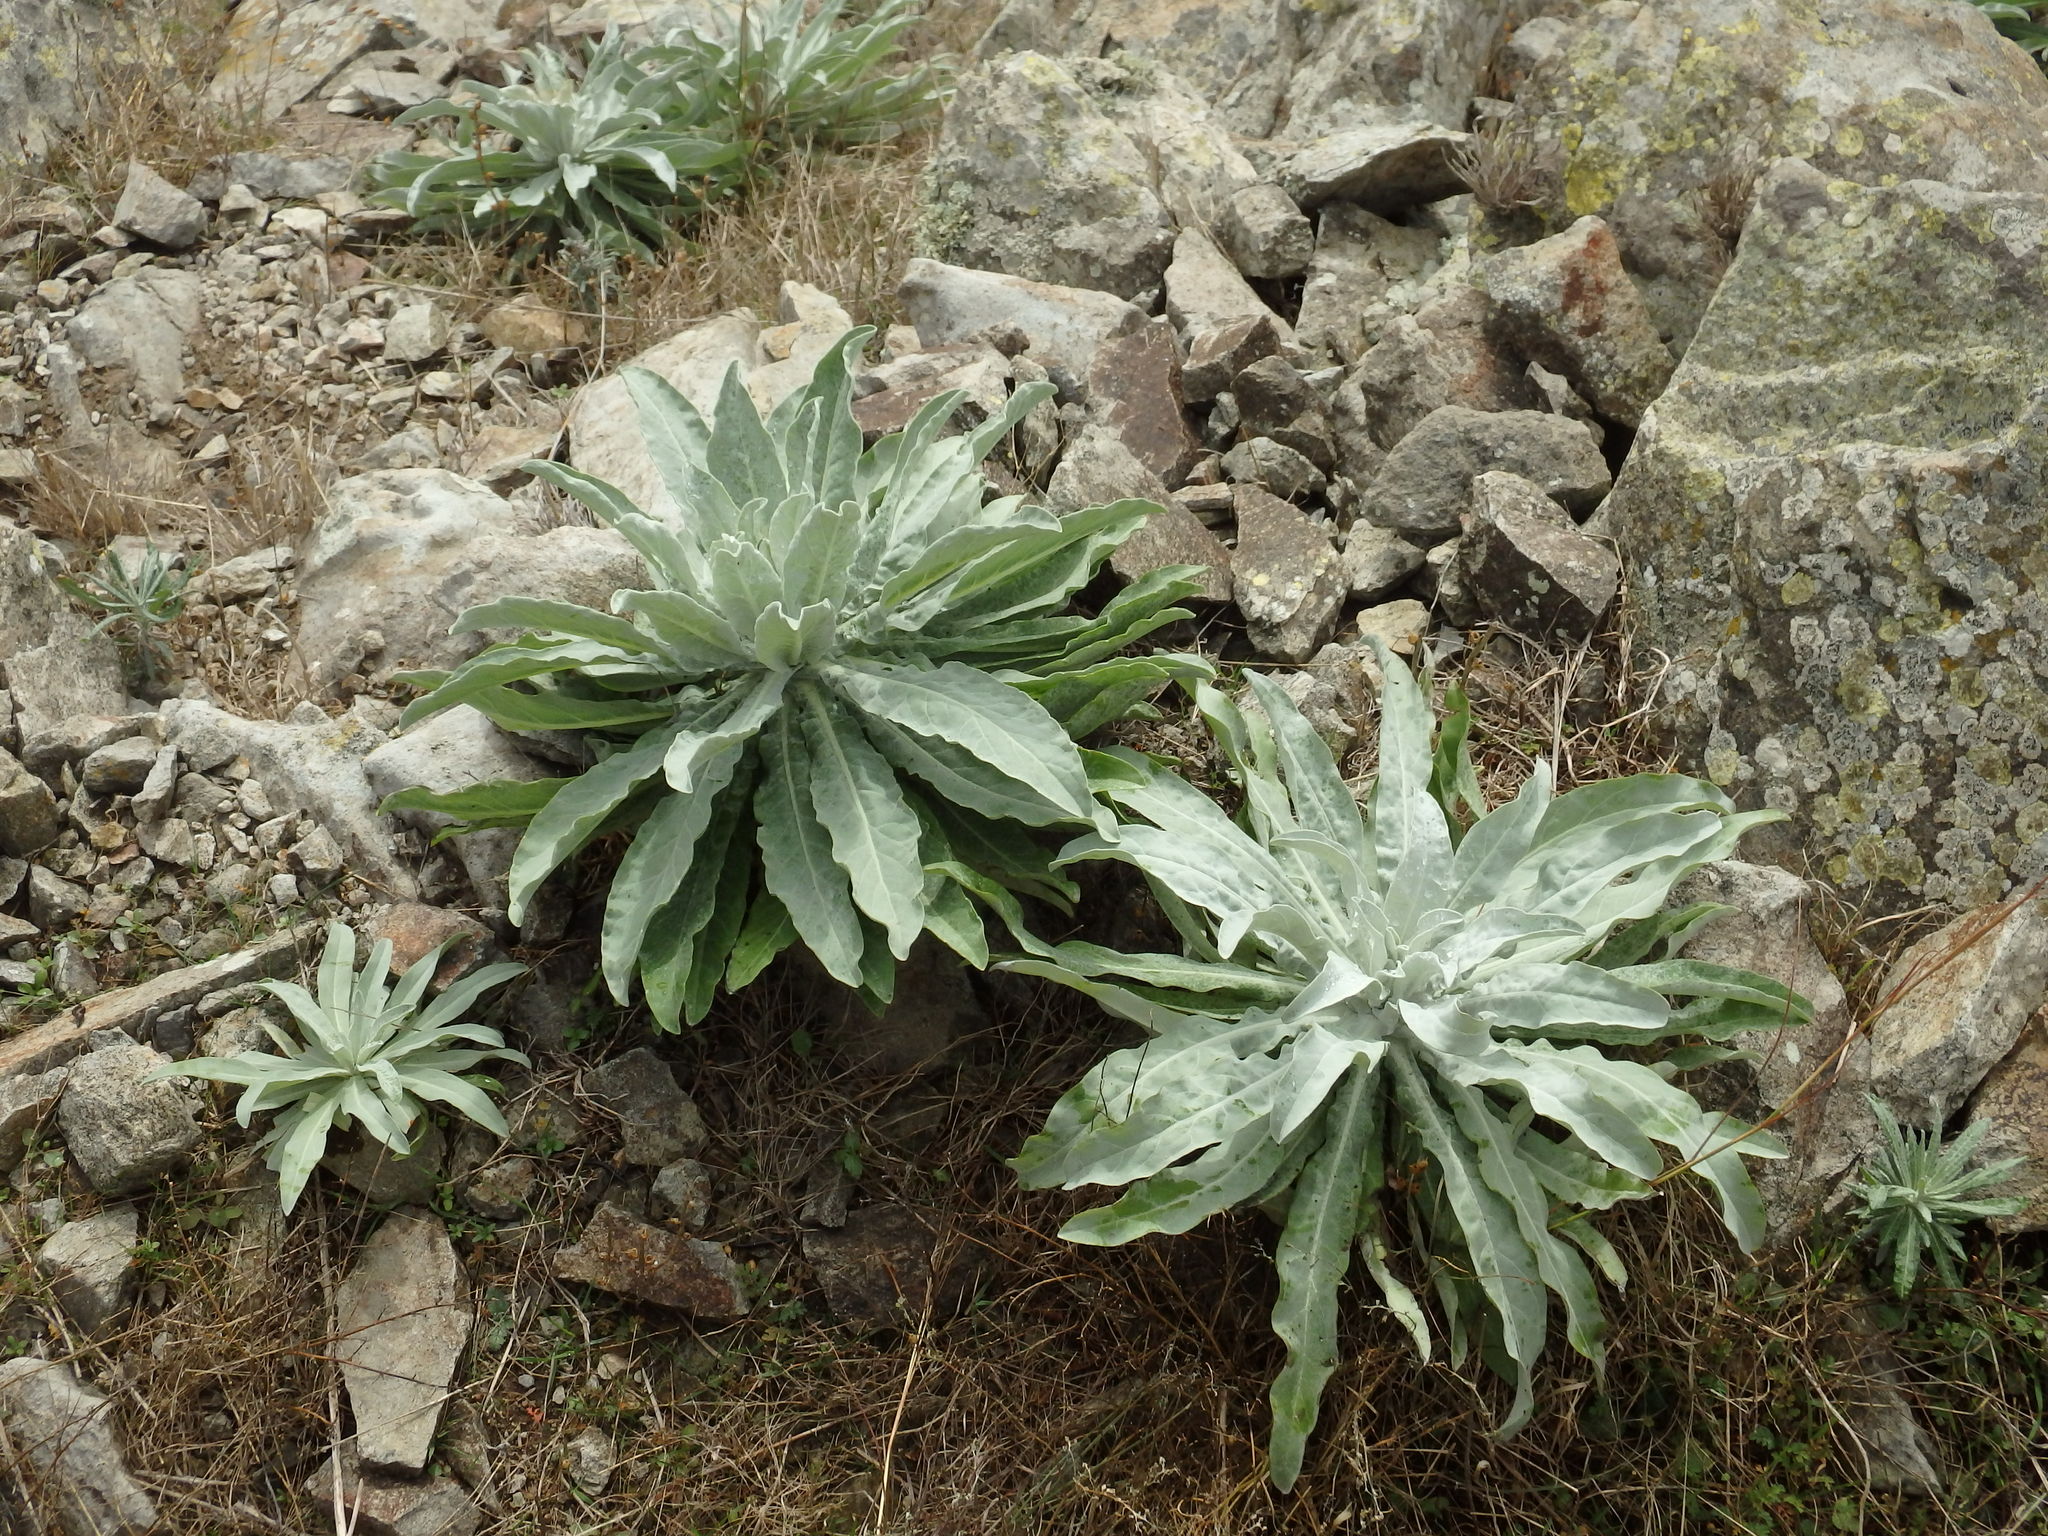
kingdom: Plantae
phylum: Tracheophyta
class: Magnoliopsida
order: Brassicales
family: Brassicaceae
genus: Matthiola
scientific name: Matthiola maderensis
